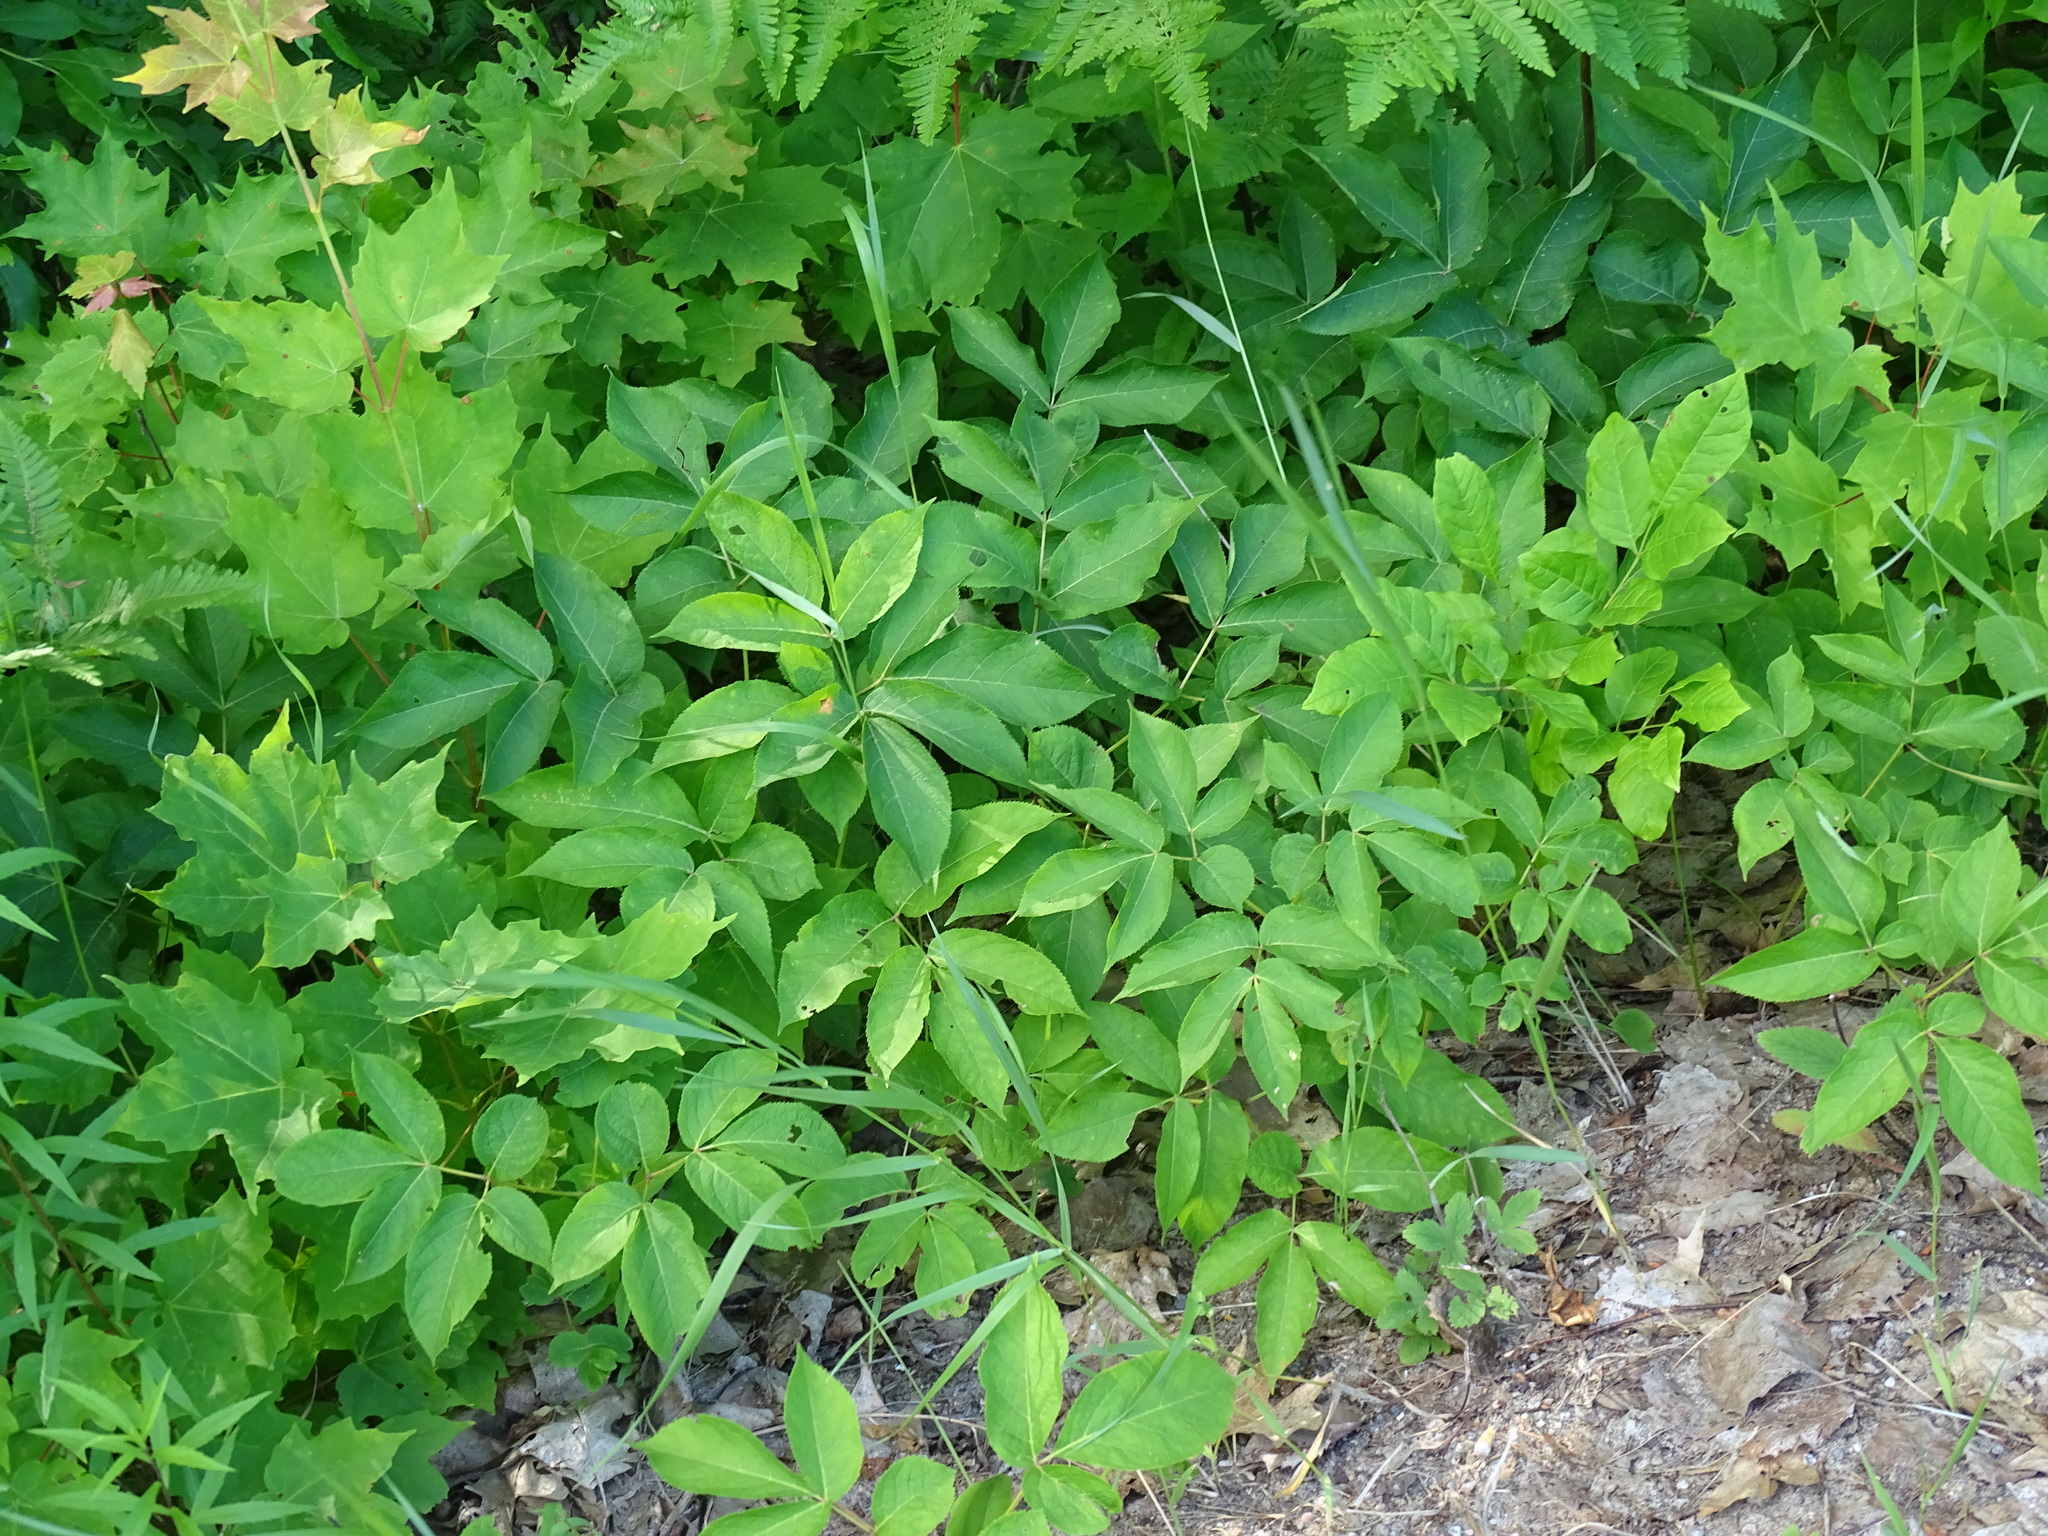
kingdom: Plantae
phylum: Tracheophyta
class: Magnoliopsida
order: Apiales
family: Araliaceae
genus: Aralia
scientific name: Aralia nudicaulis
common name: Wild sarsaparilla
